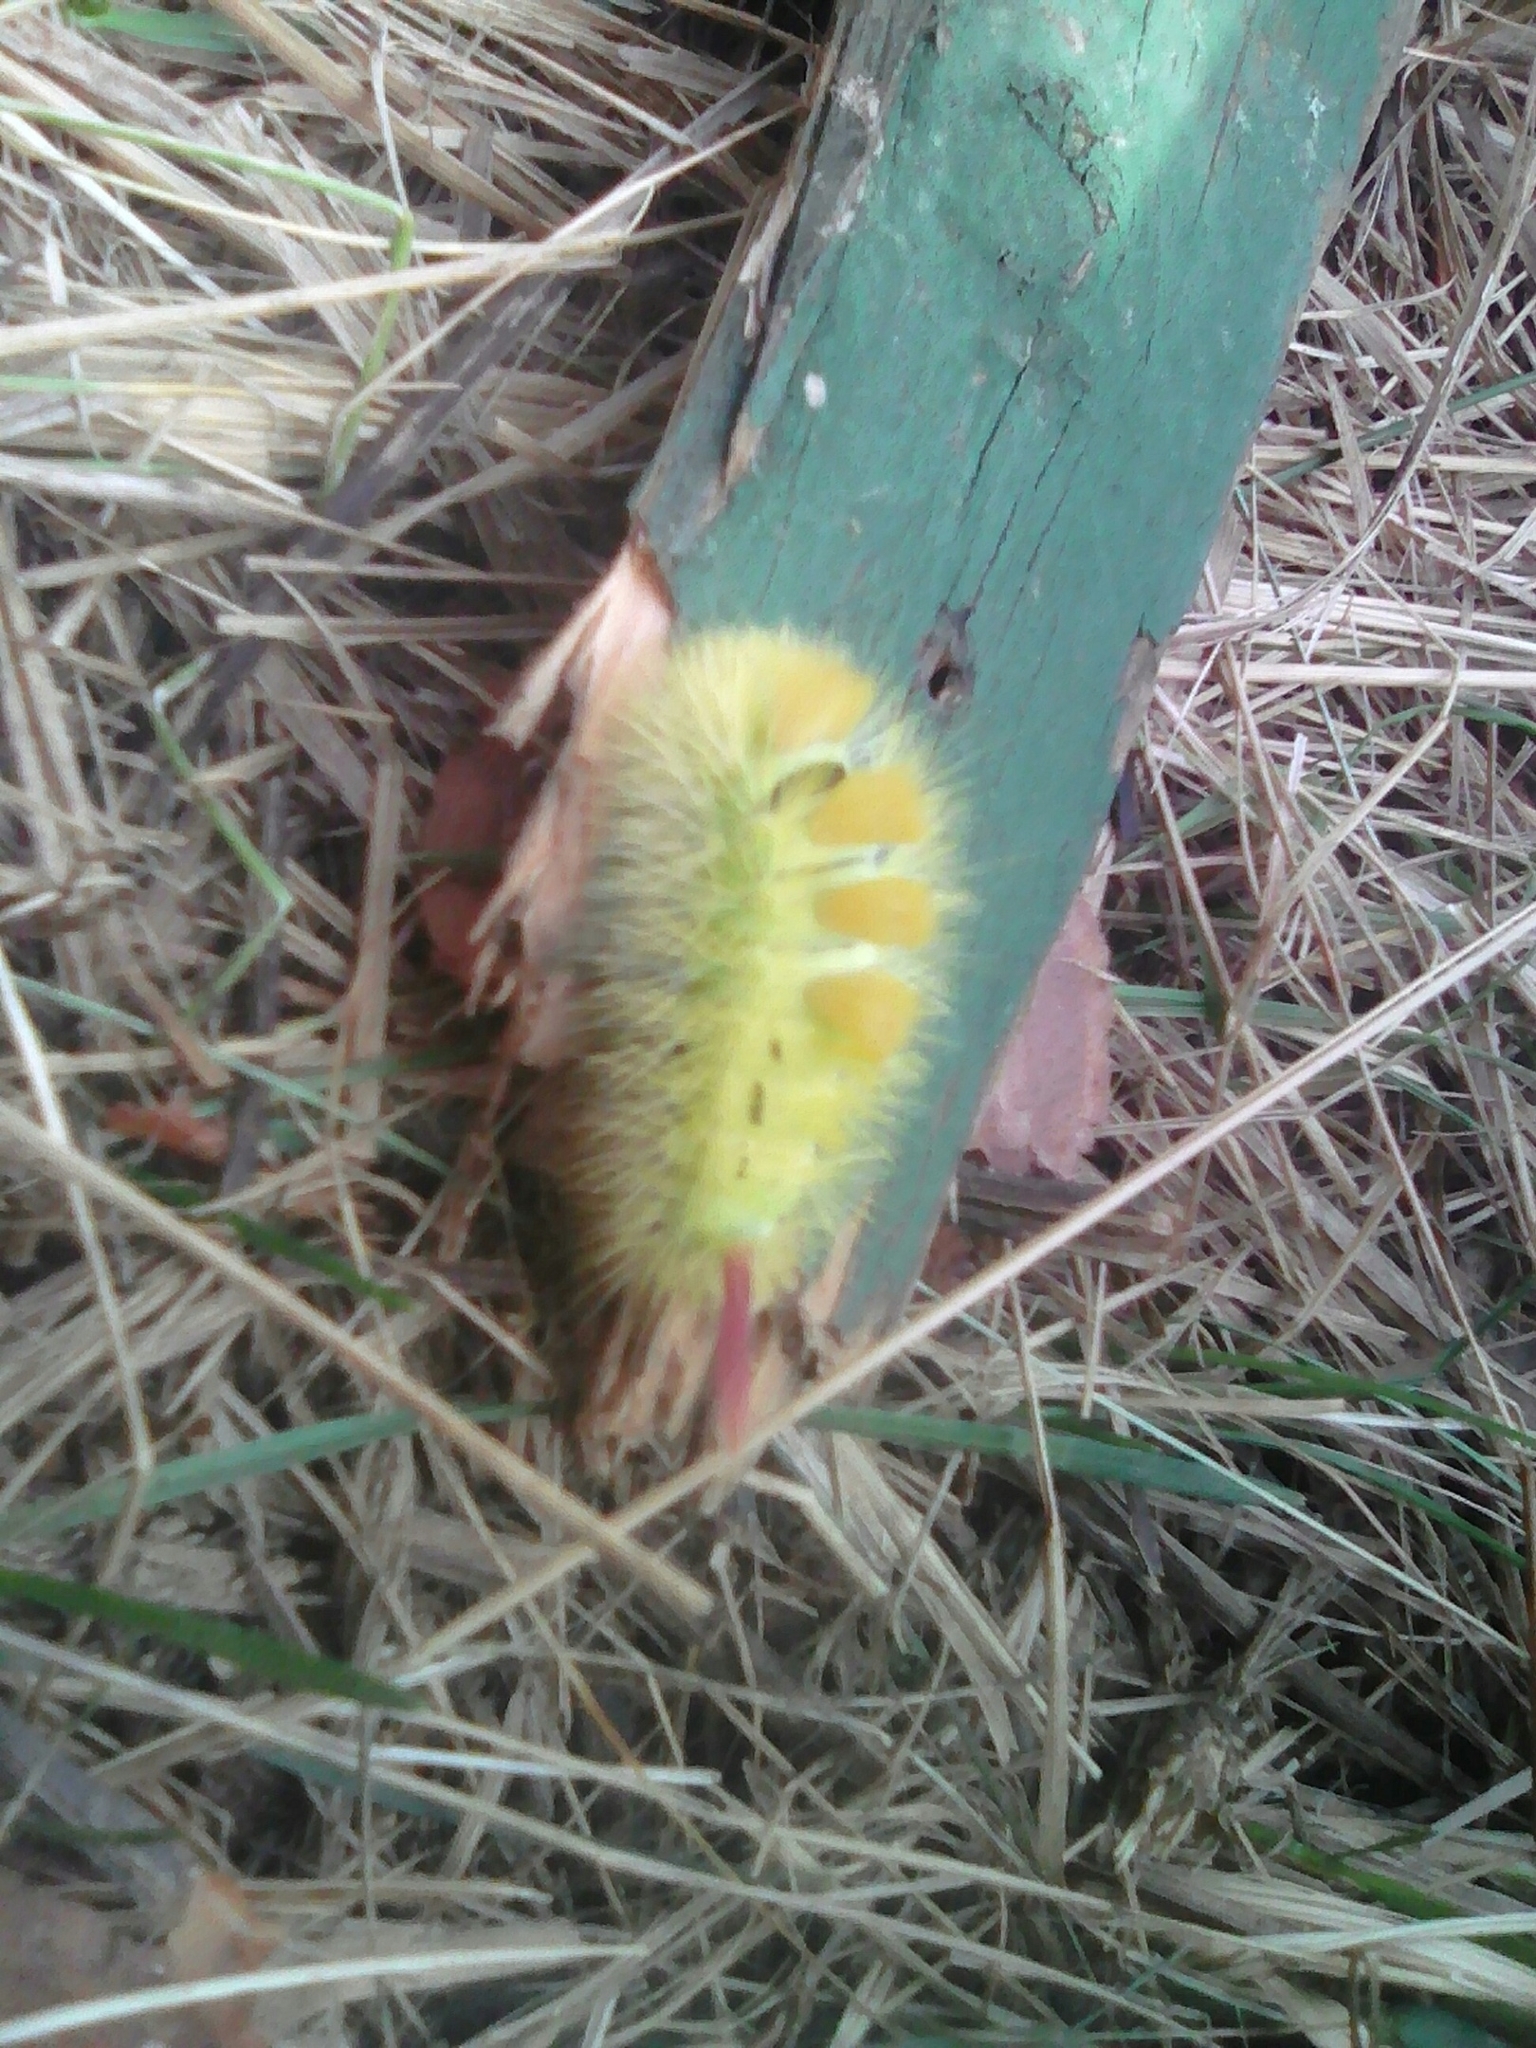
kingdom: Animalia
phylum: Arthropoda
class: Insecta
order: Lepidoptera
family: Erebidae
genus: Calliteara
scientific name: Calliteara pudibunda
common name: Pale tussock
